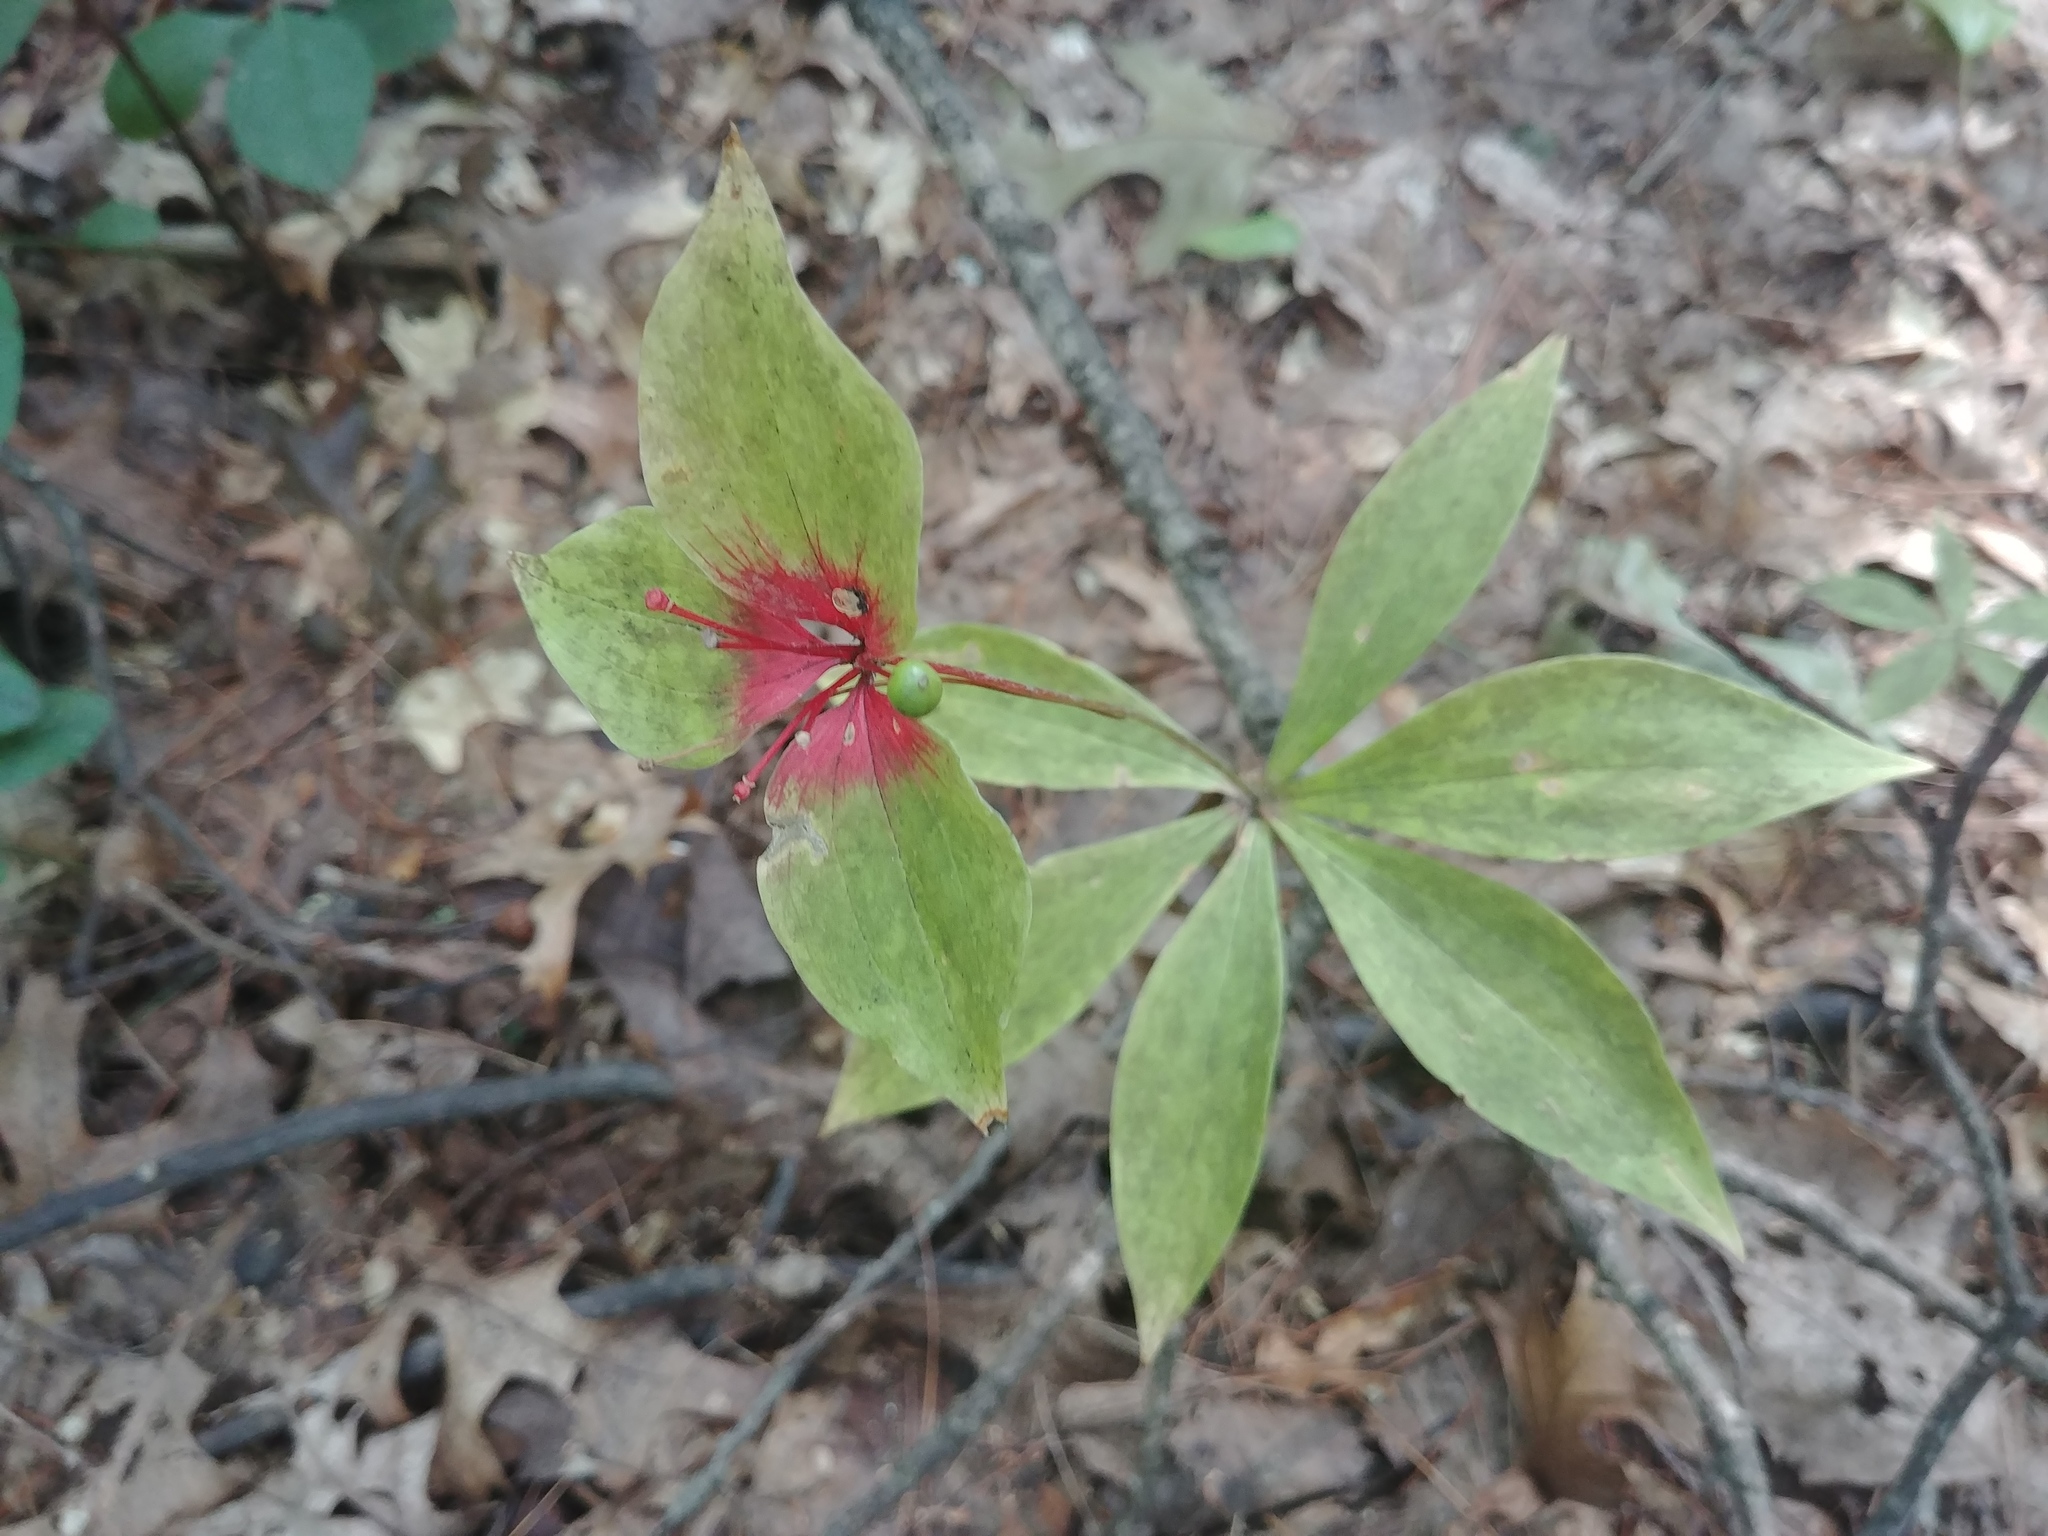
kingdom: Plantae
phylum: Tracheophyta
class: Liliopsida
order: Liliales
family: Liliaceae
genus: Medeola
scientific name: Medeola virginiana
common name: Indian cucumber-root
